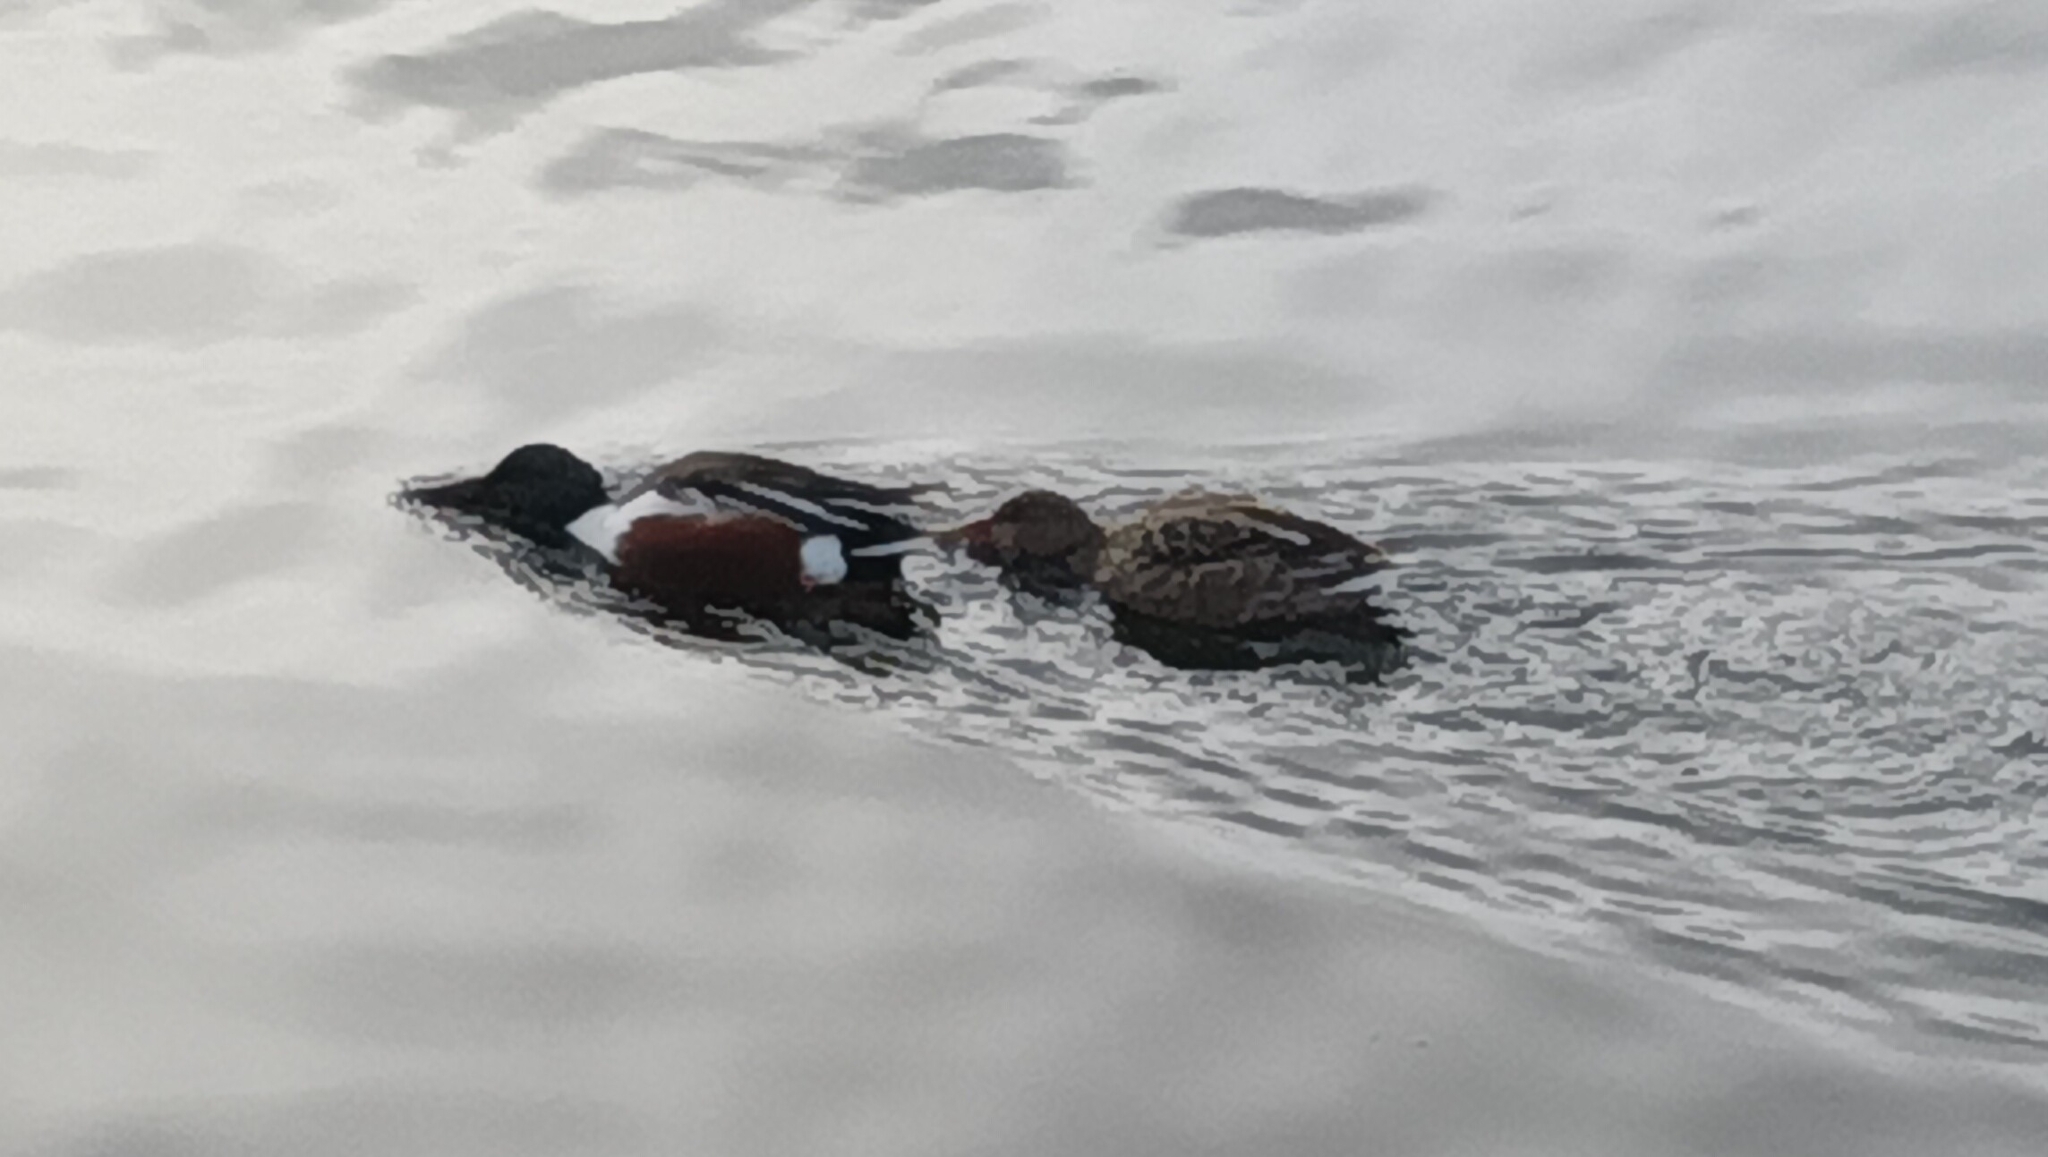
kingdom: Animalia
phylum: Chordata
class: Aves
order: Anseriformes
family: Anatidae
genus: Spatula
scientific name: Spatula clypeata
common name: Northern shoveler
